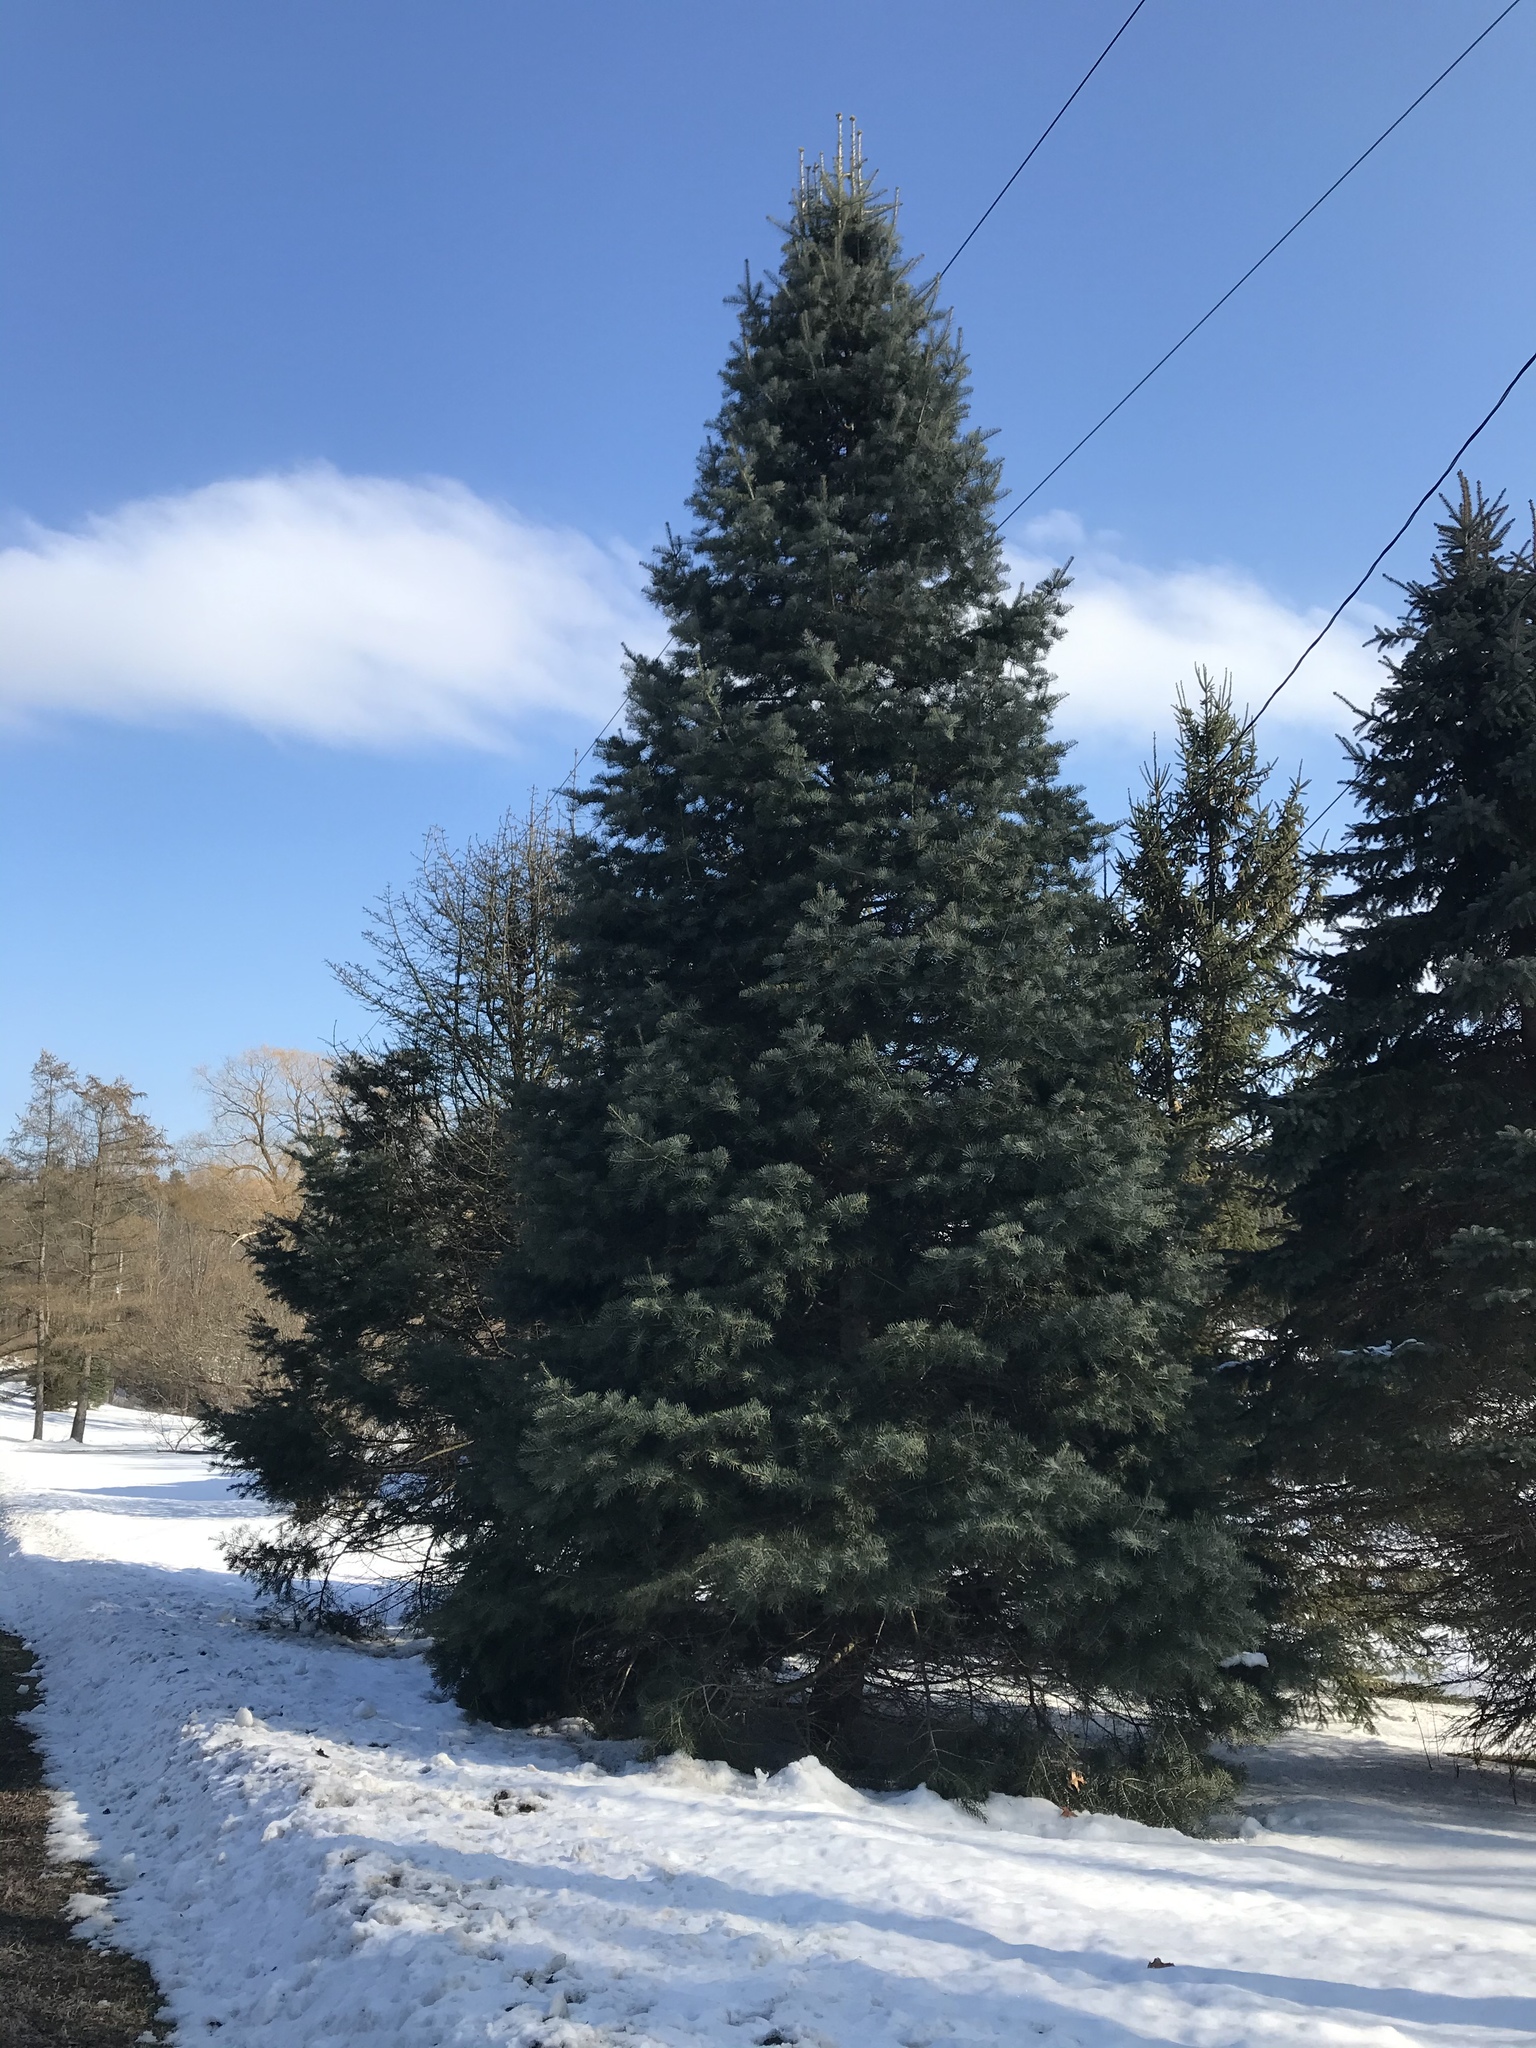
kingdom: Plantae
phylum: Tracheophyta
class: Pinopsida
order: Pinales
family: Pinaceae
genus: Abies
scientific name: Abies concolor
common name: Colorado fir
